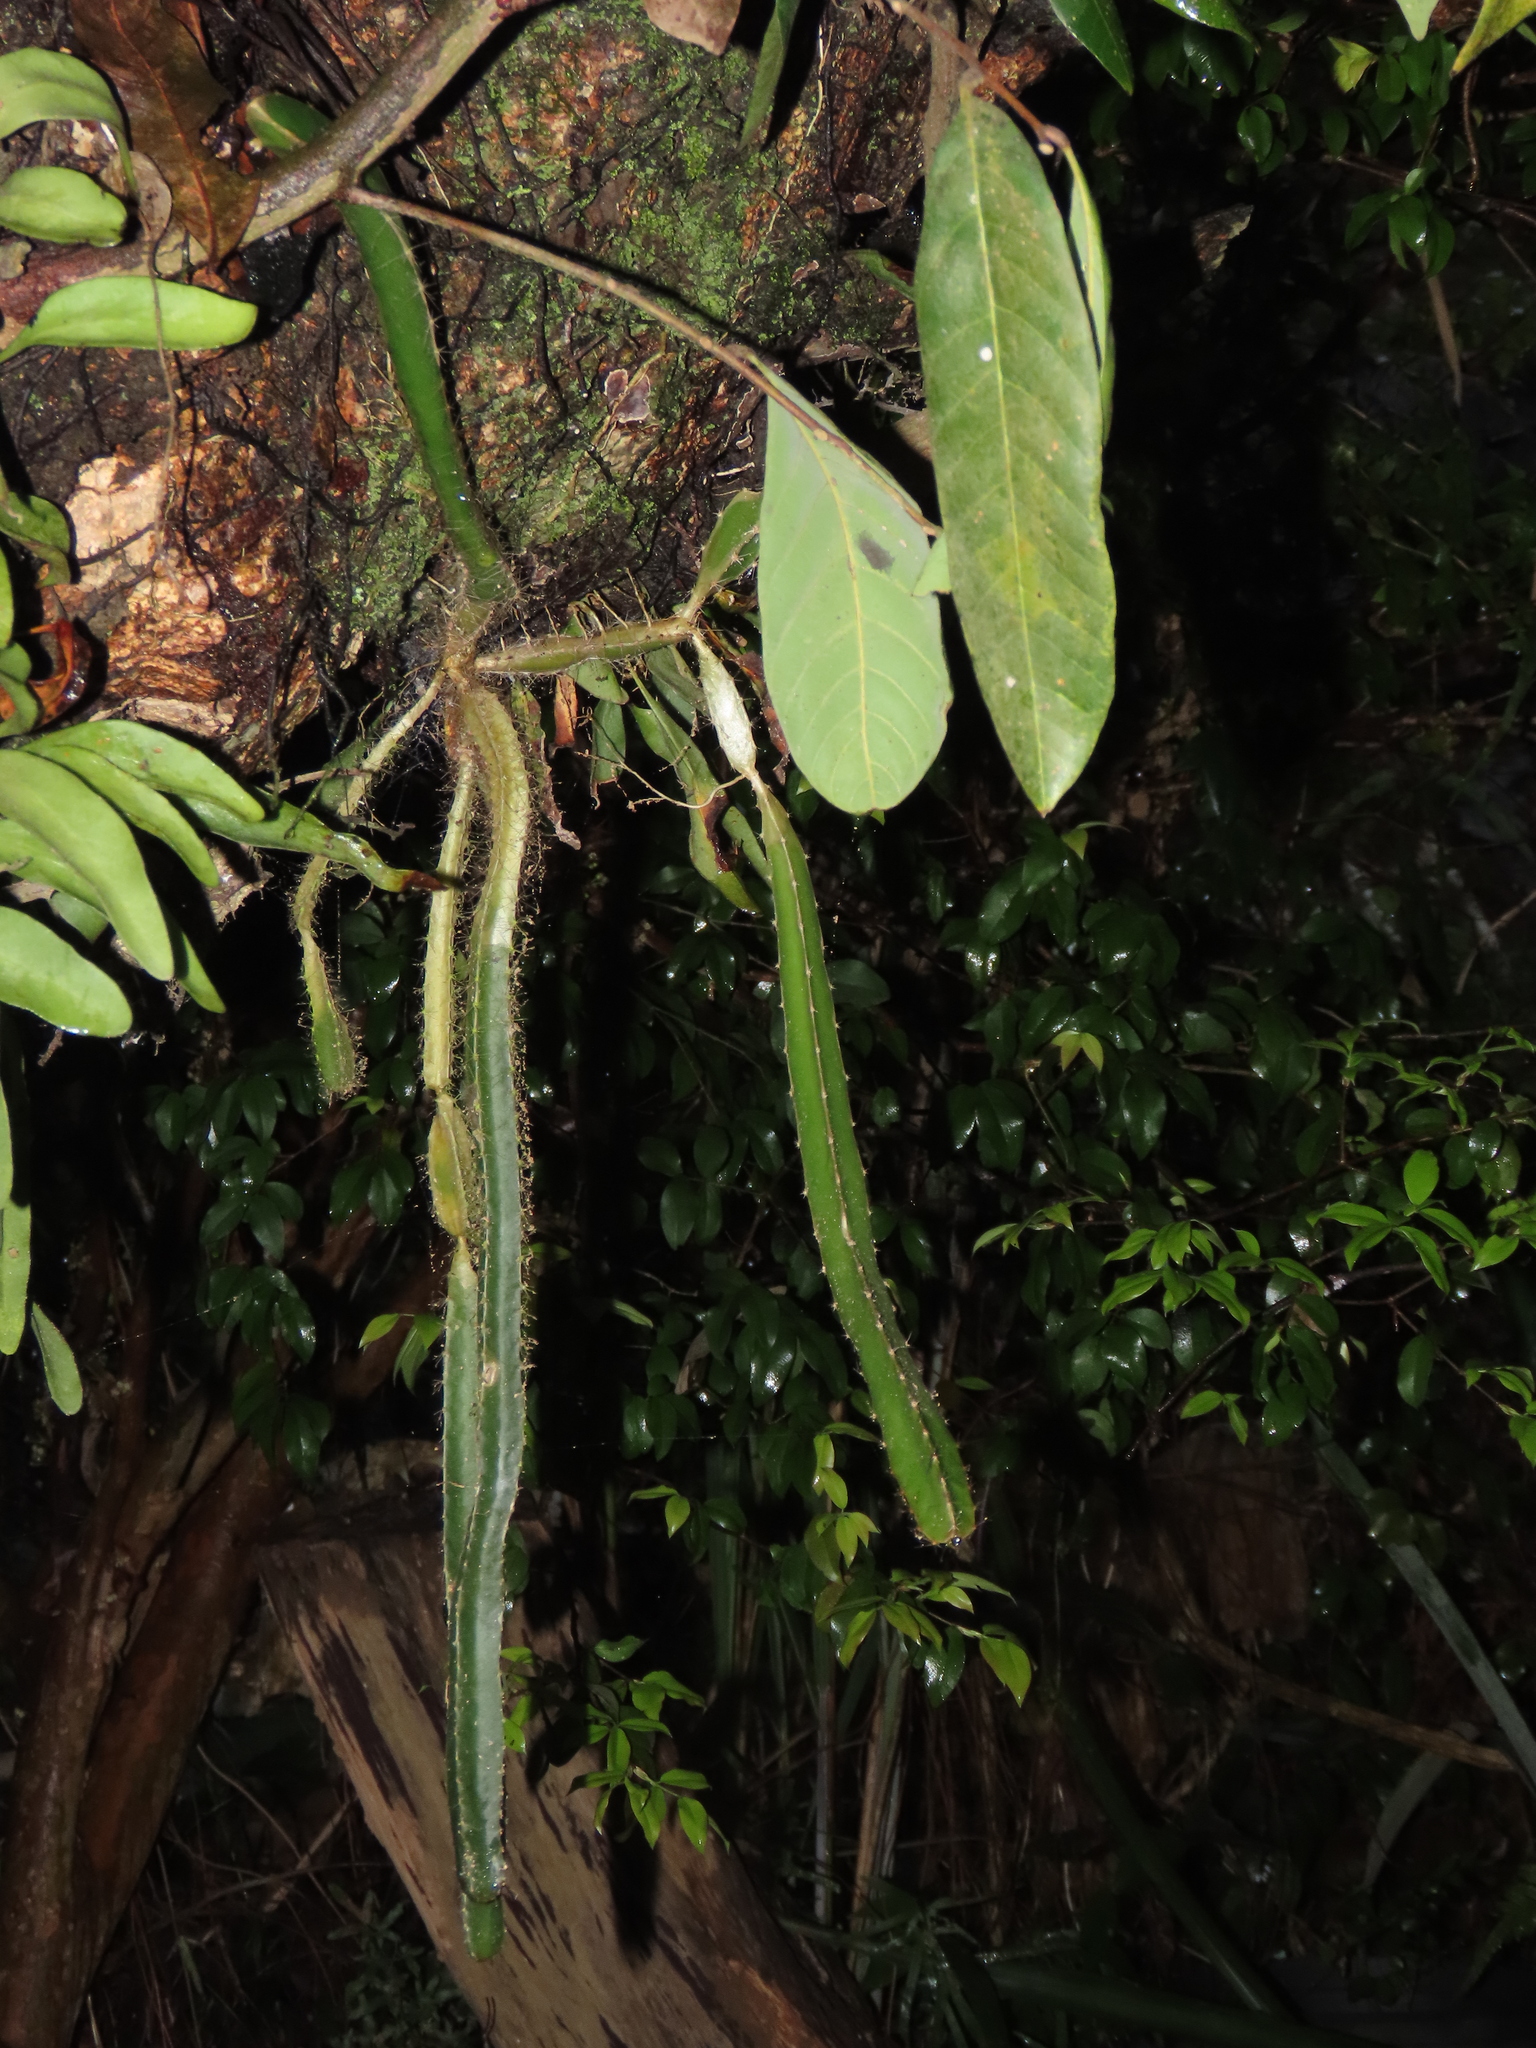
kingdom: Plantae
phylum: Tracheophyta
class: Magnoliopsida
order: Caryophyllales
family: Cactaceae
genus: Selenicereus
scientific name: Selenicereus undatus
